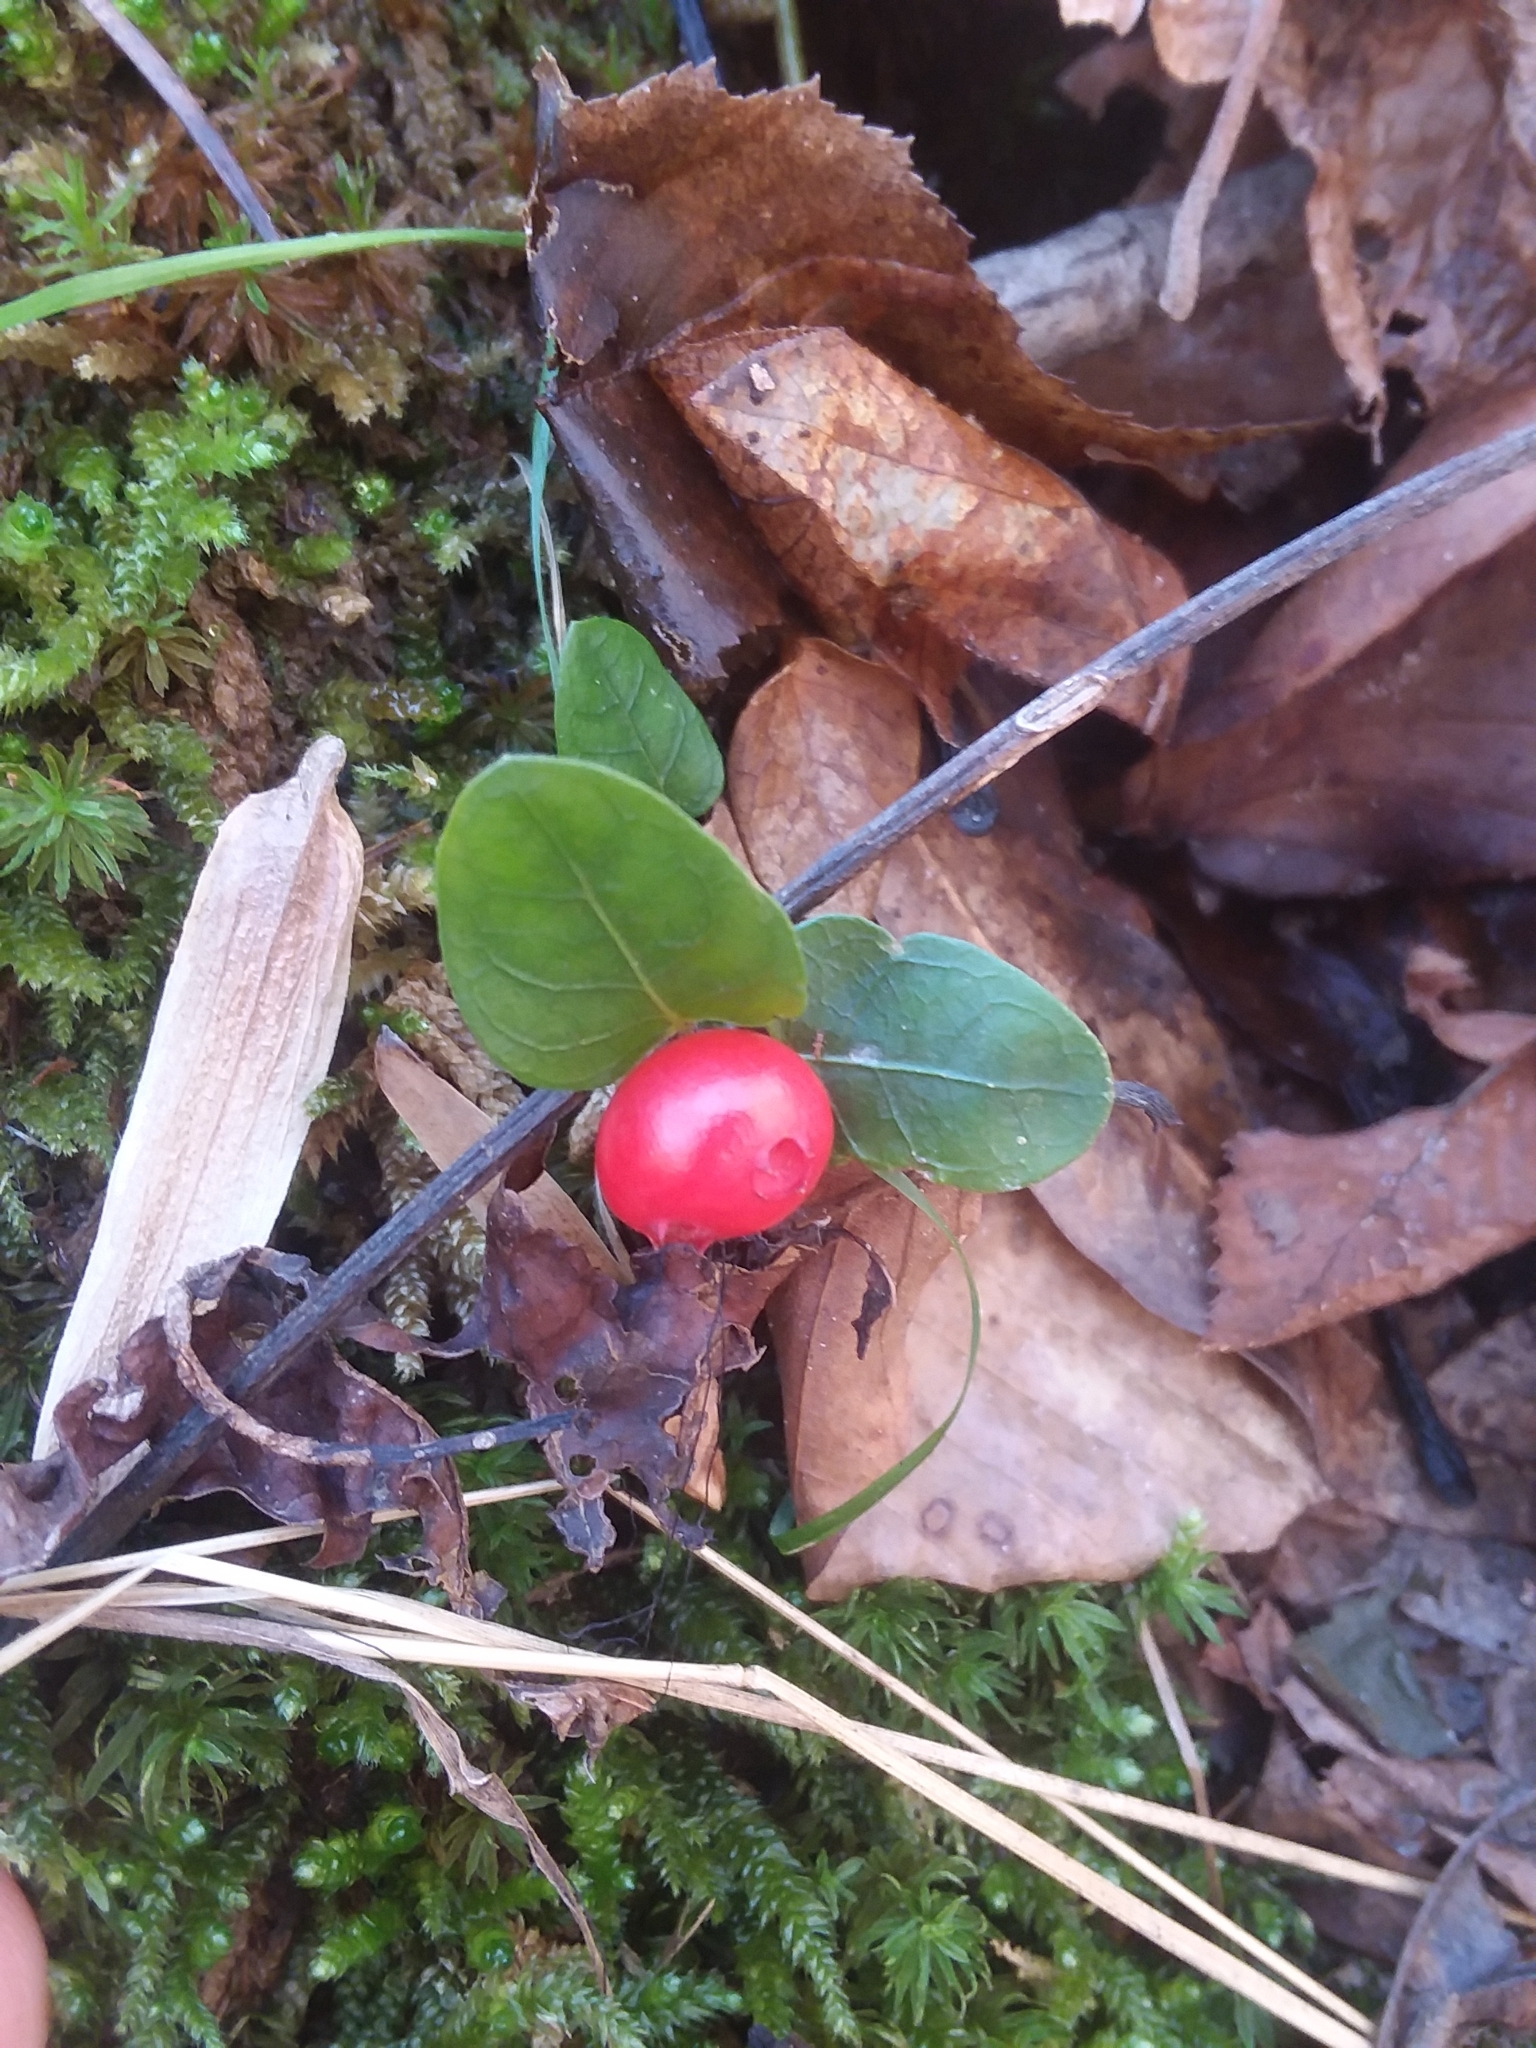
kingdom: Plantae
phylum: Tracheophyta
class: Magnoliopsida
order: Gentianales
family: Rubiaceae
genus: Mitchella
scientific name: Mitchella repens
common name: Partridge-berry
